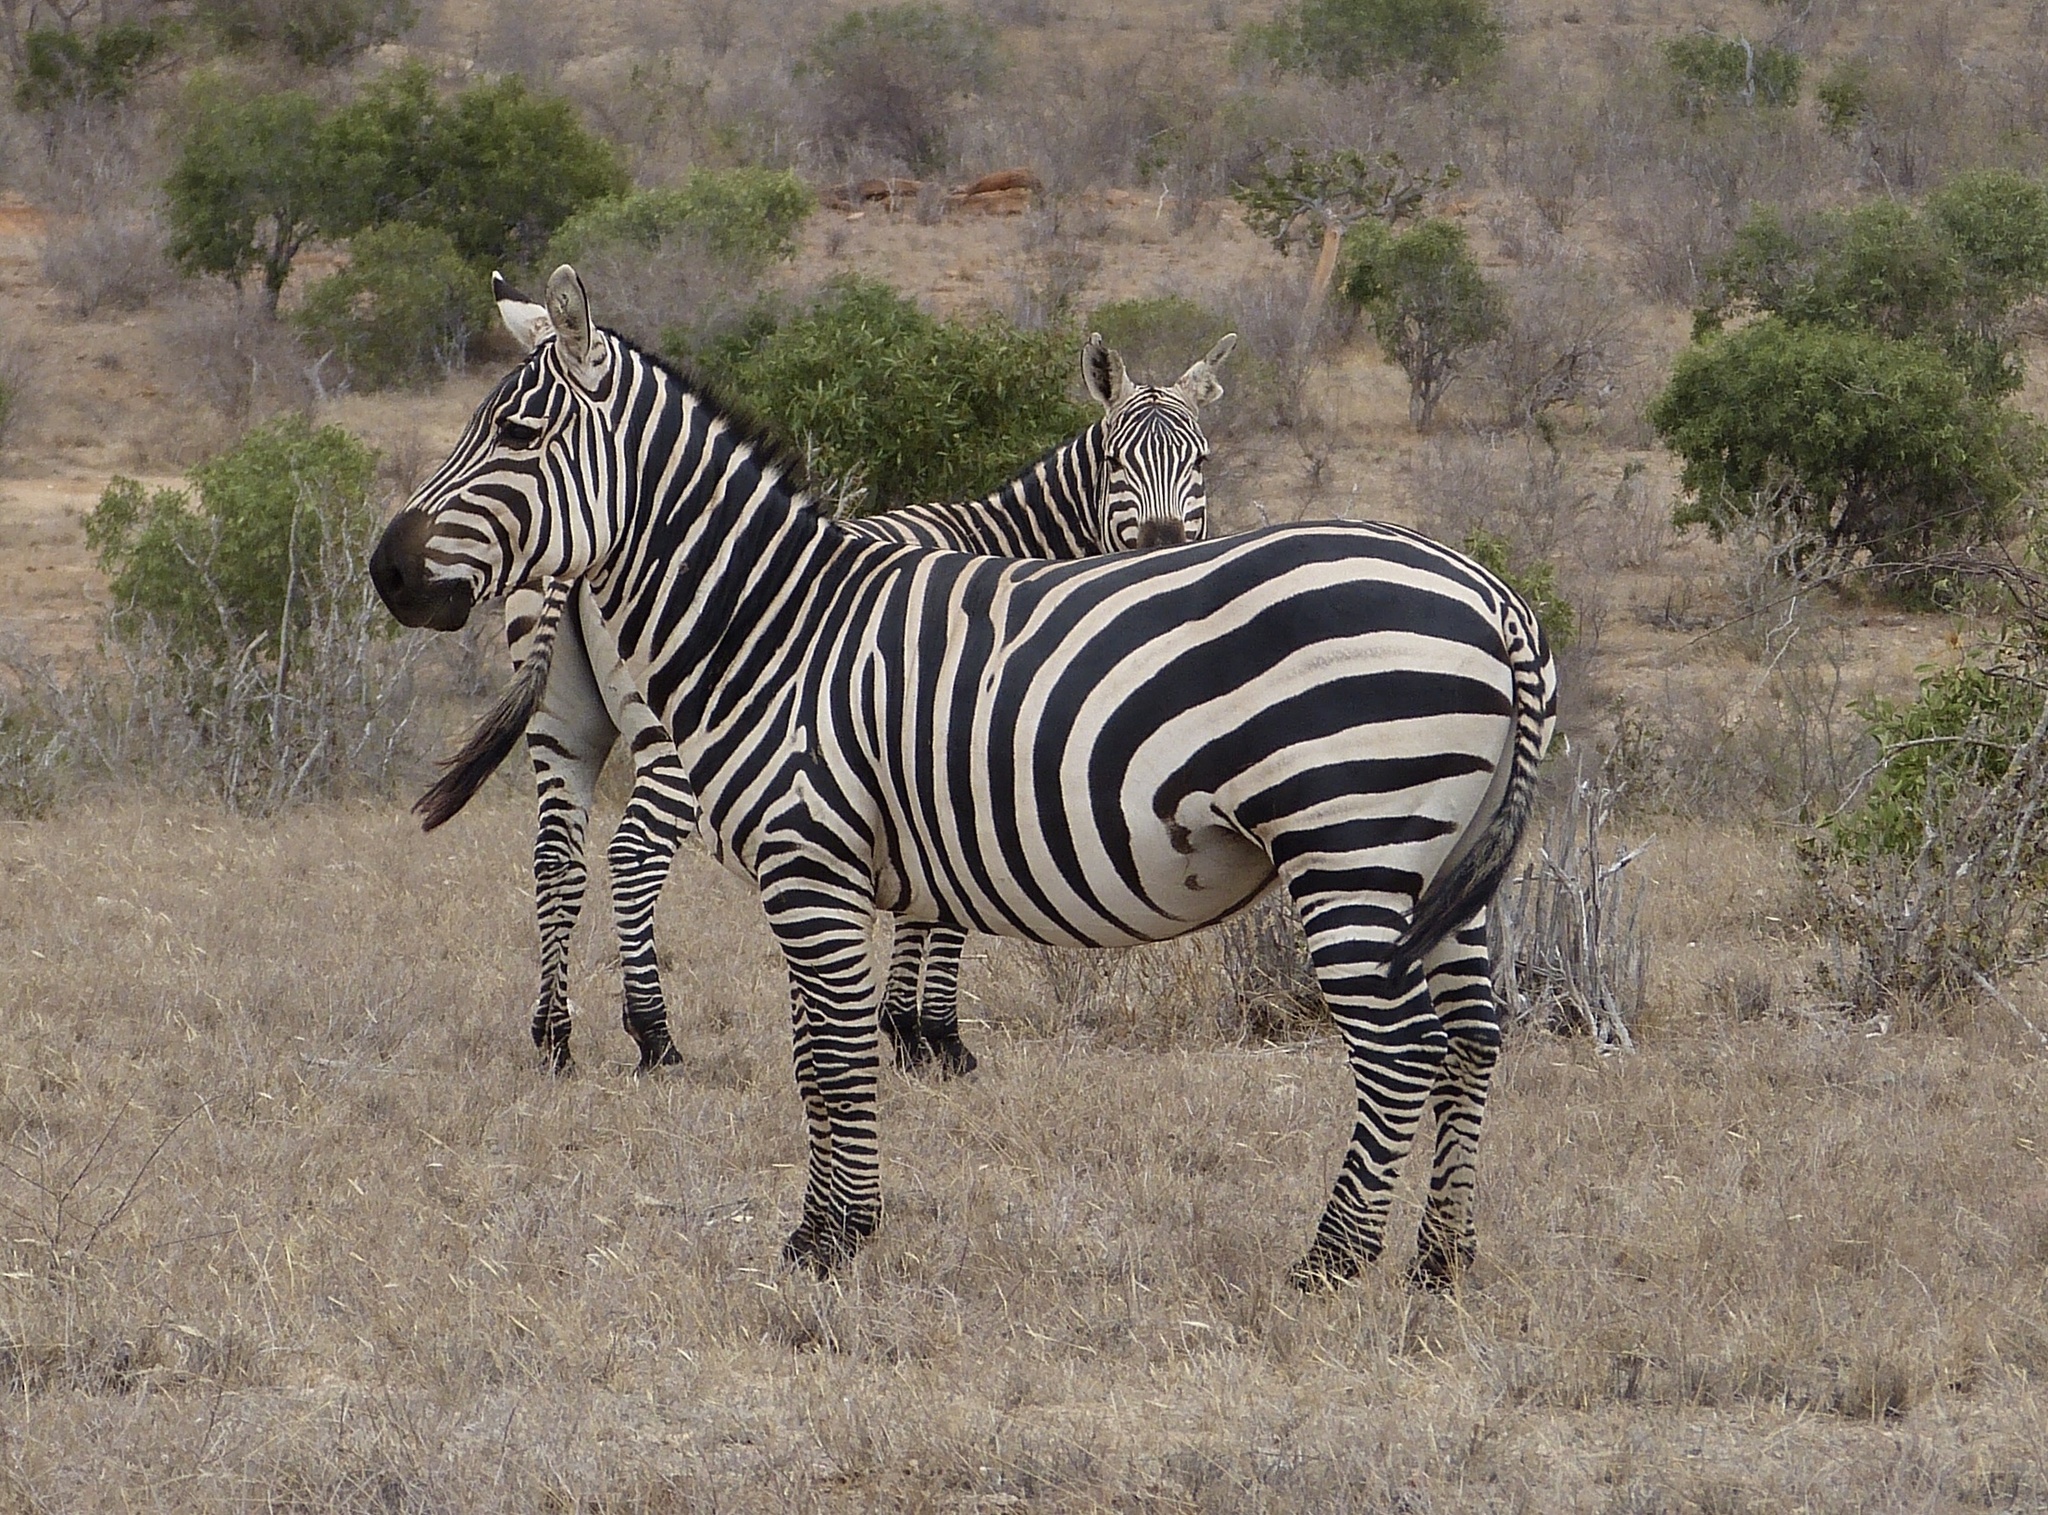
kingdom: Animalia
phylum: Chordata
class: Mammalia
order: Perissodactyla
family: Equidae
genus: Equus
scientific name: Equus quagga
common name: Plains zebra
